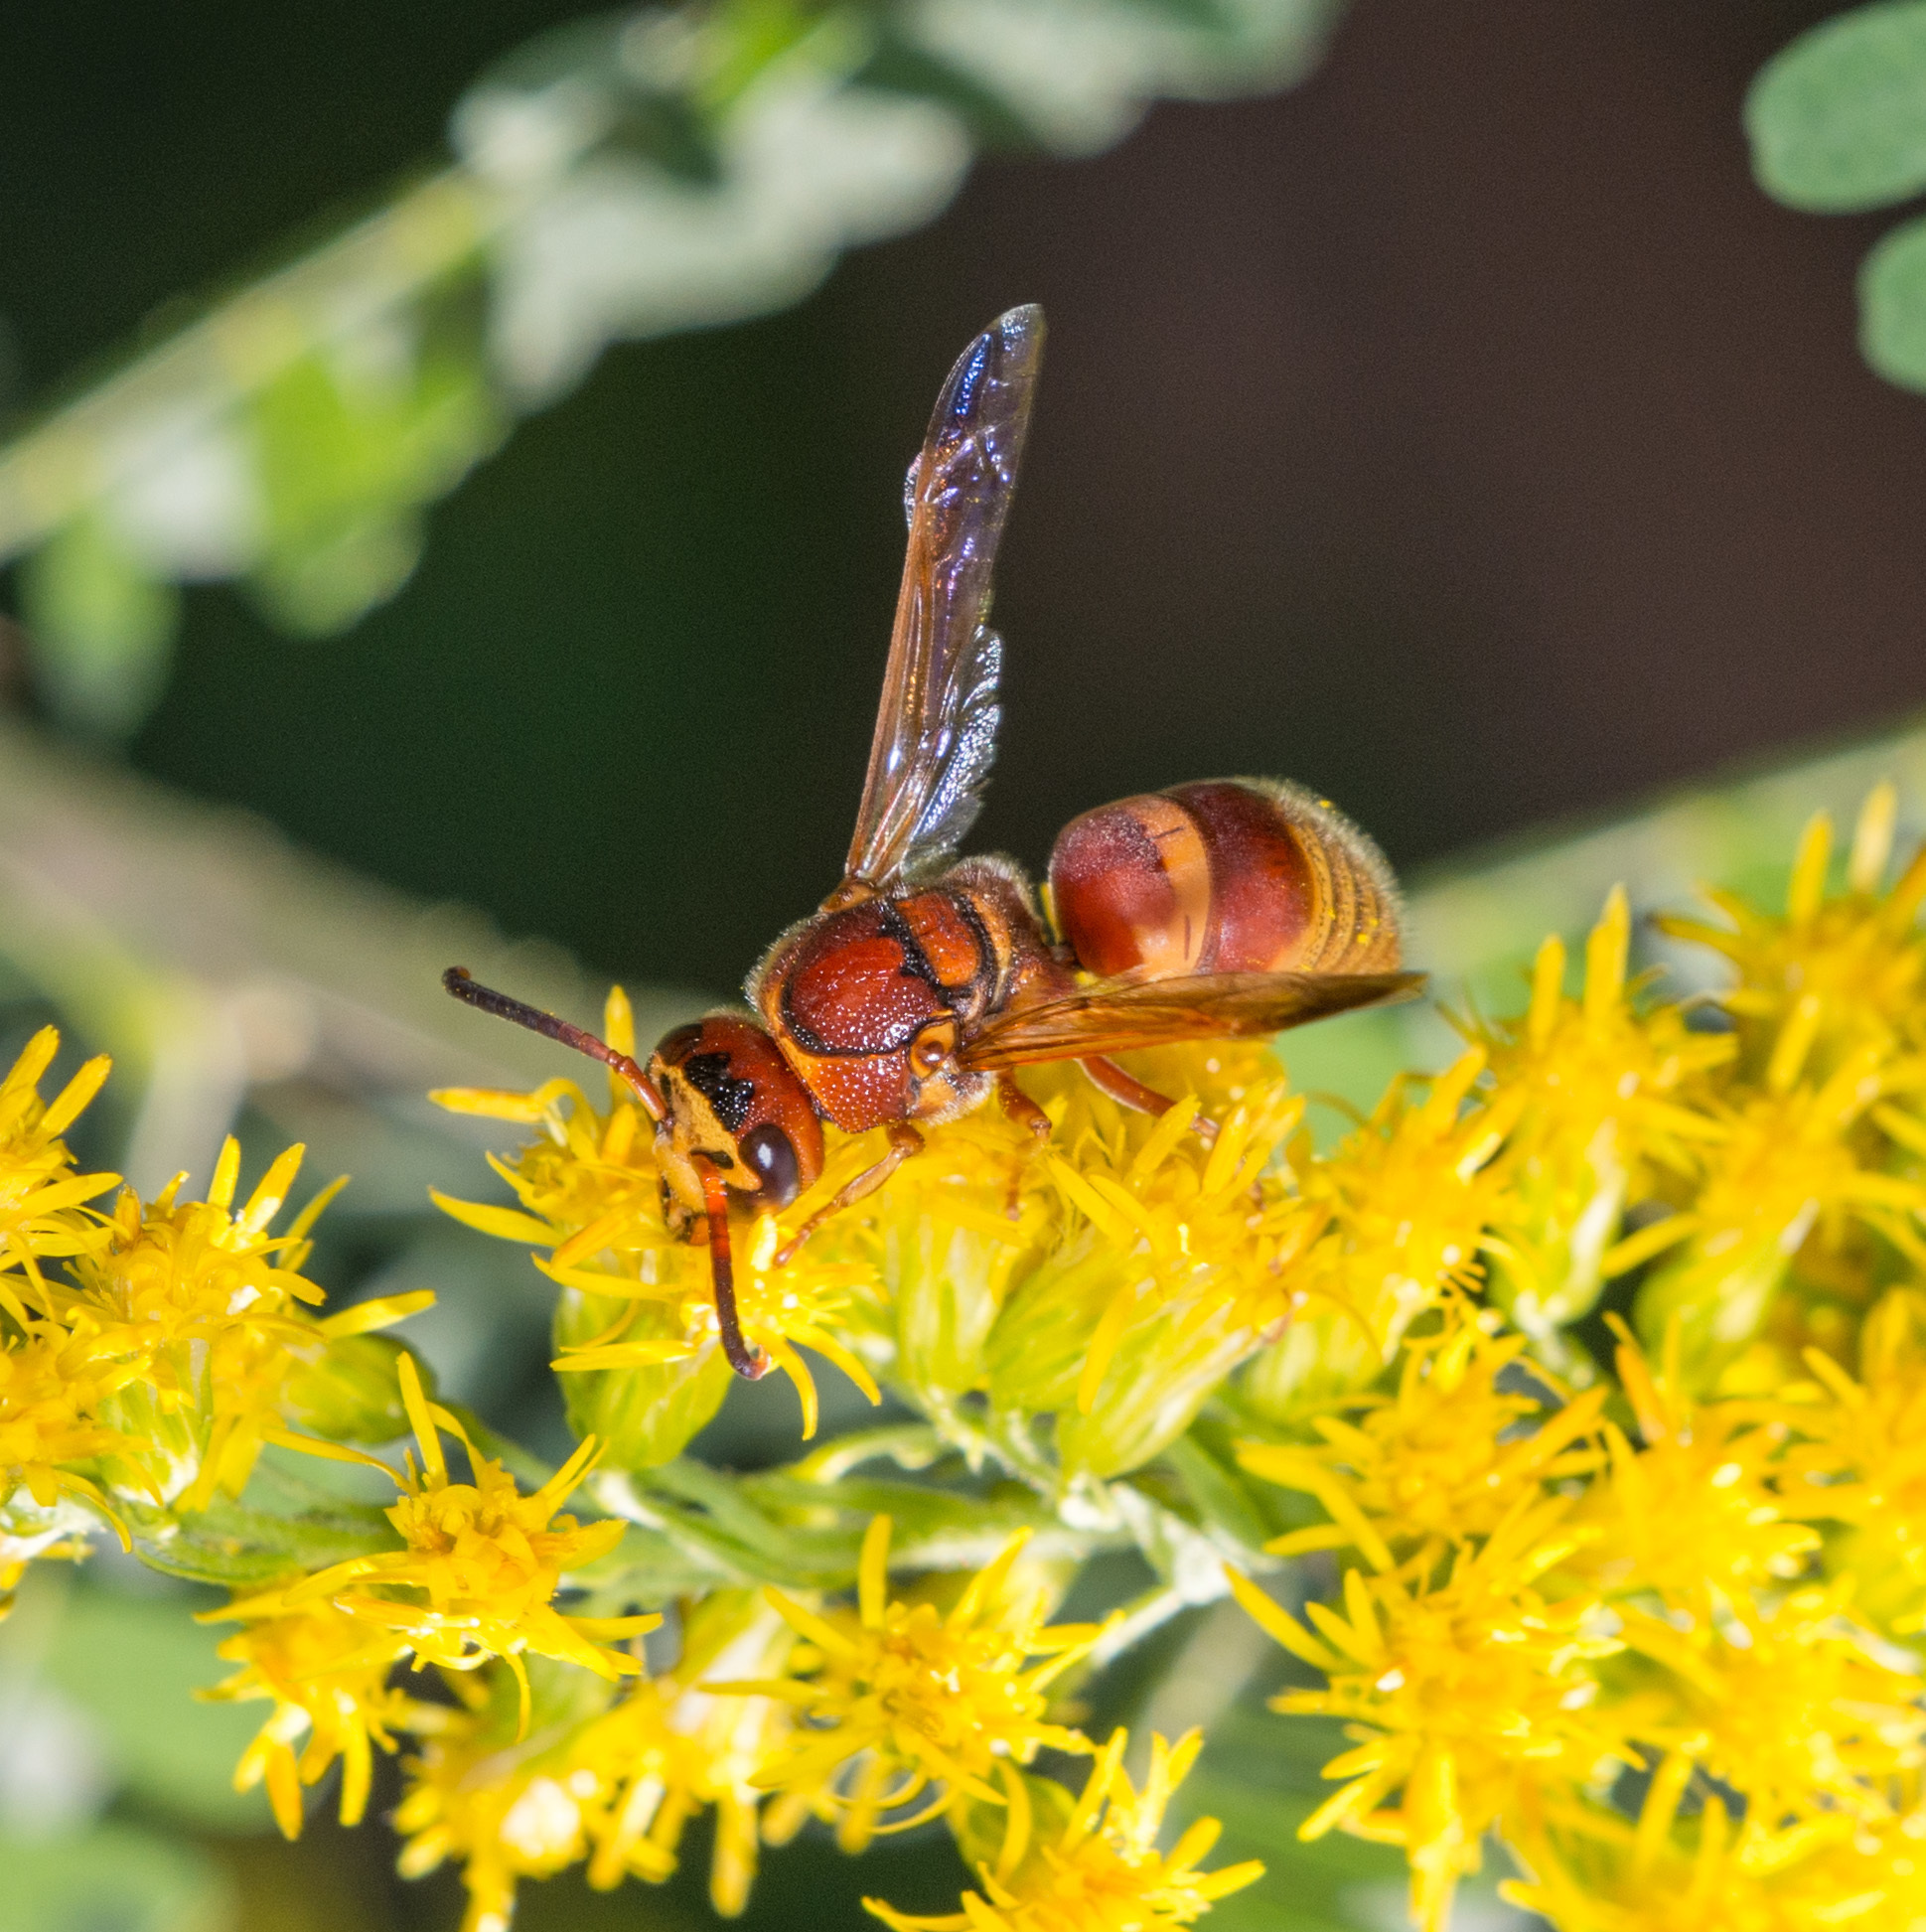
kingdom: Animalia
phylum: Arthropoda
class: Insecta
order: Hymenoptera
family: Eumenidae
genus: Euodynerus
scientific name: Euodynerus pratensis
